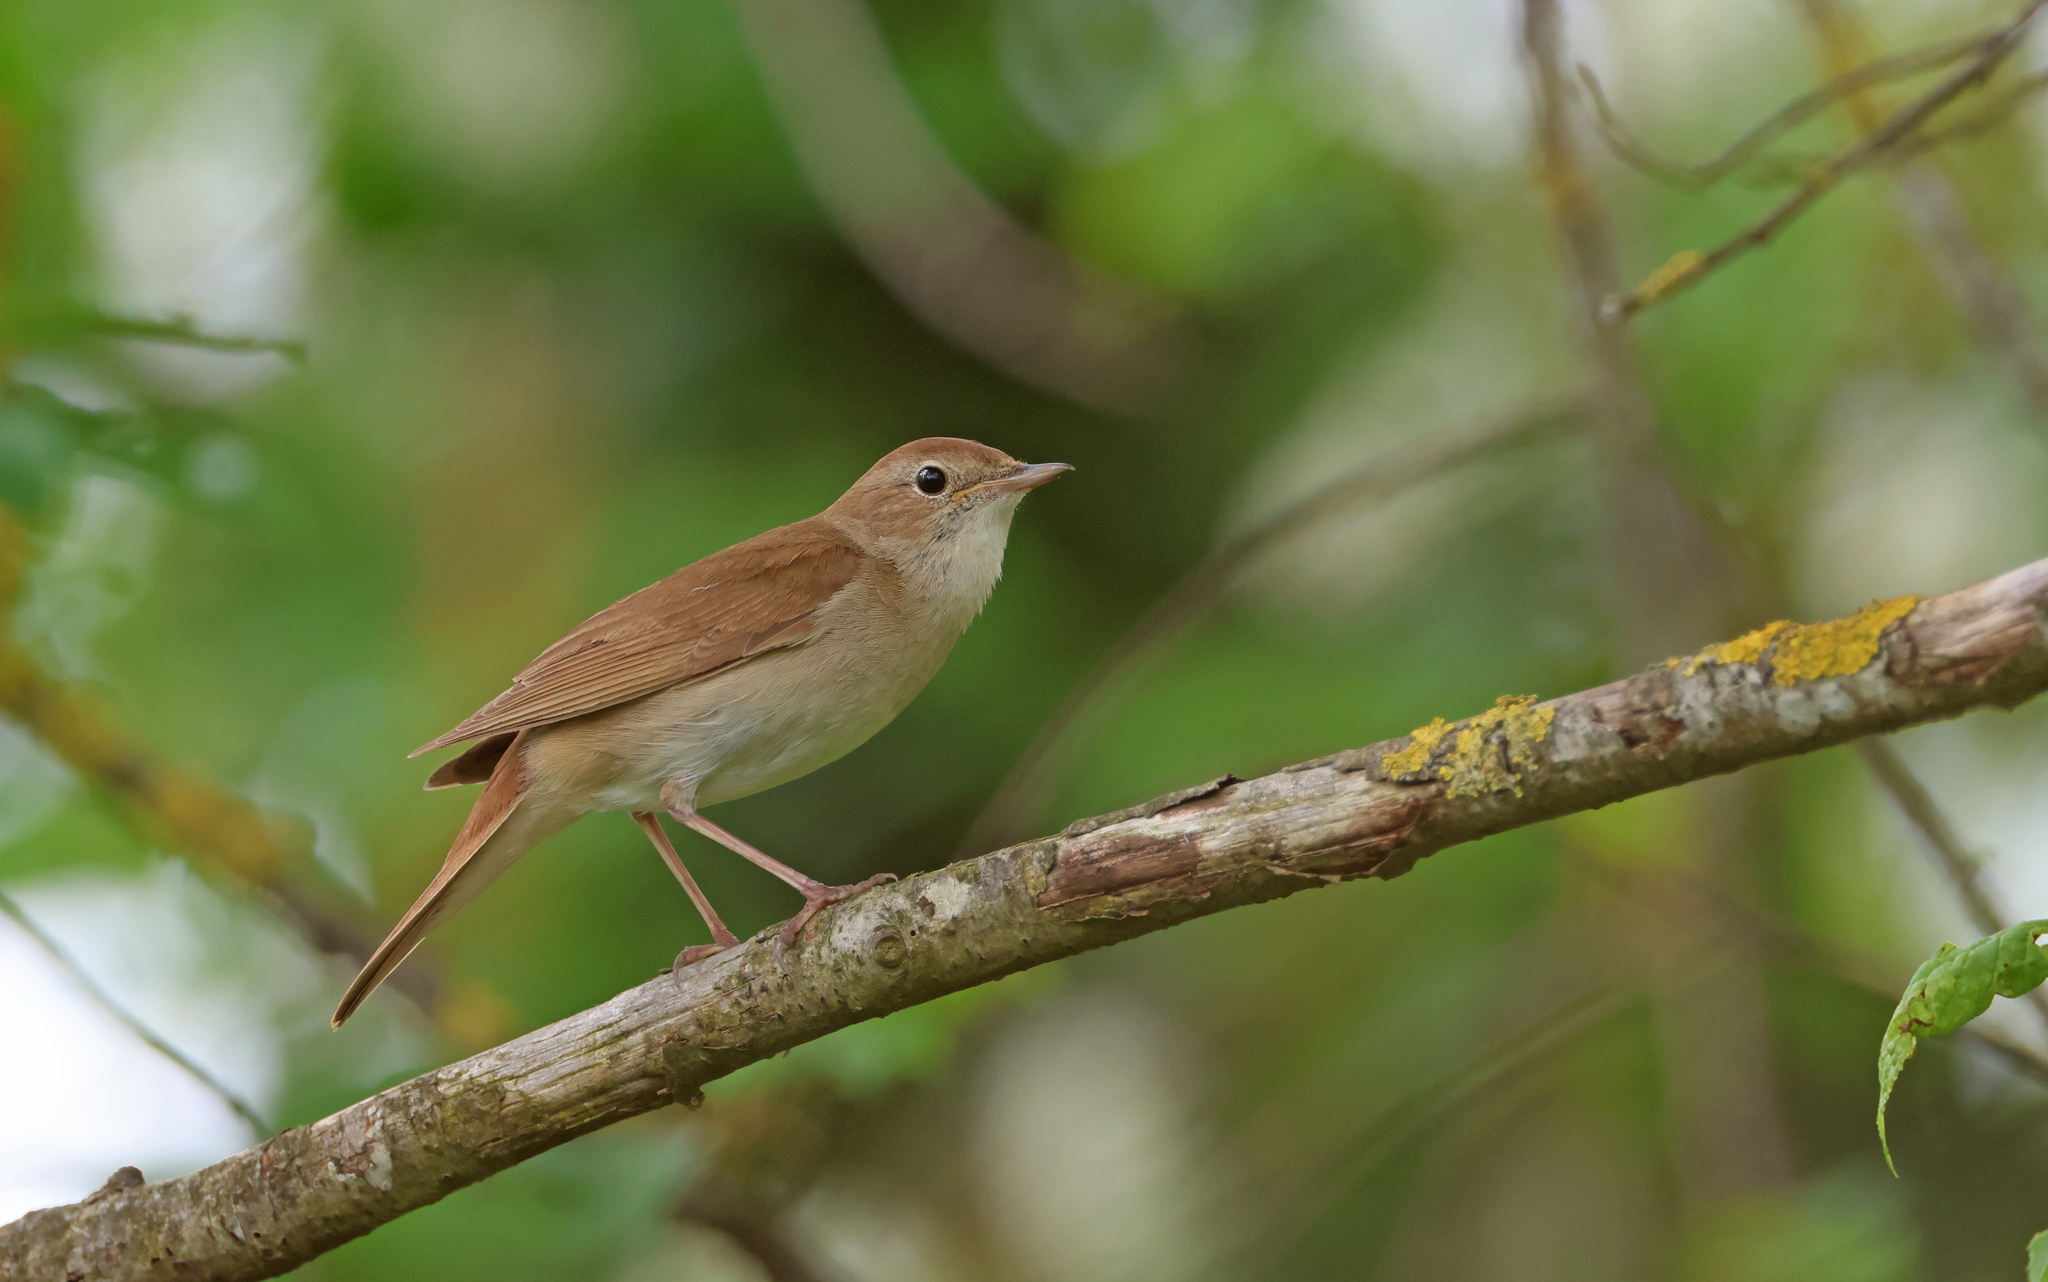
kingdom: Animalia
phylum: Chordata
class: Aves
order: Passeriformes
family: Muscicapidae
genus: Luscinia
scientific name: Luscinia megarhynchos
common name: Common nightingale
